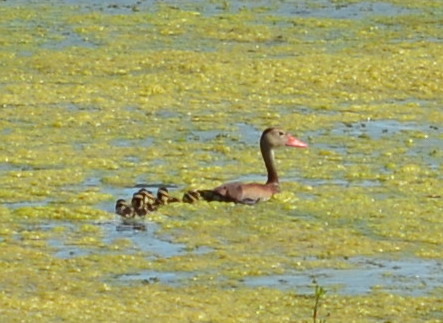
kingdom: Animalia
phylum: Chordata
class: Aves
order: Anseriformes
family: Anatidae
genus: Dendrocygna
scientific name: Dendrocygna autumnalis
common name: Black-bellied whistling duck
